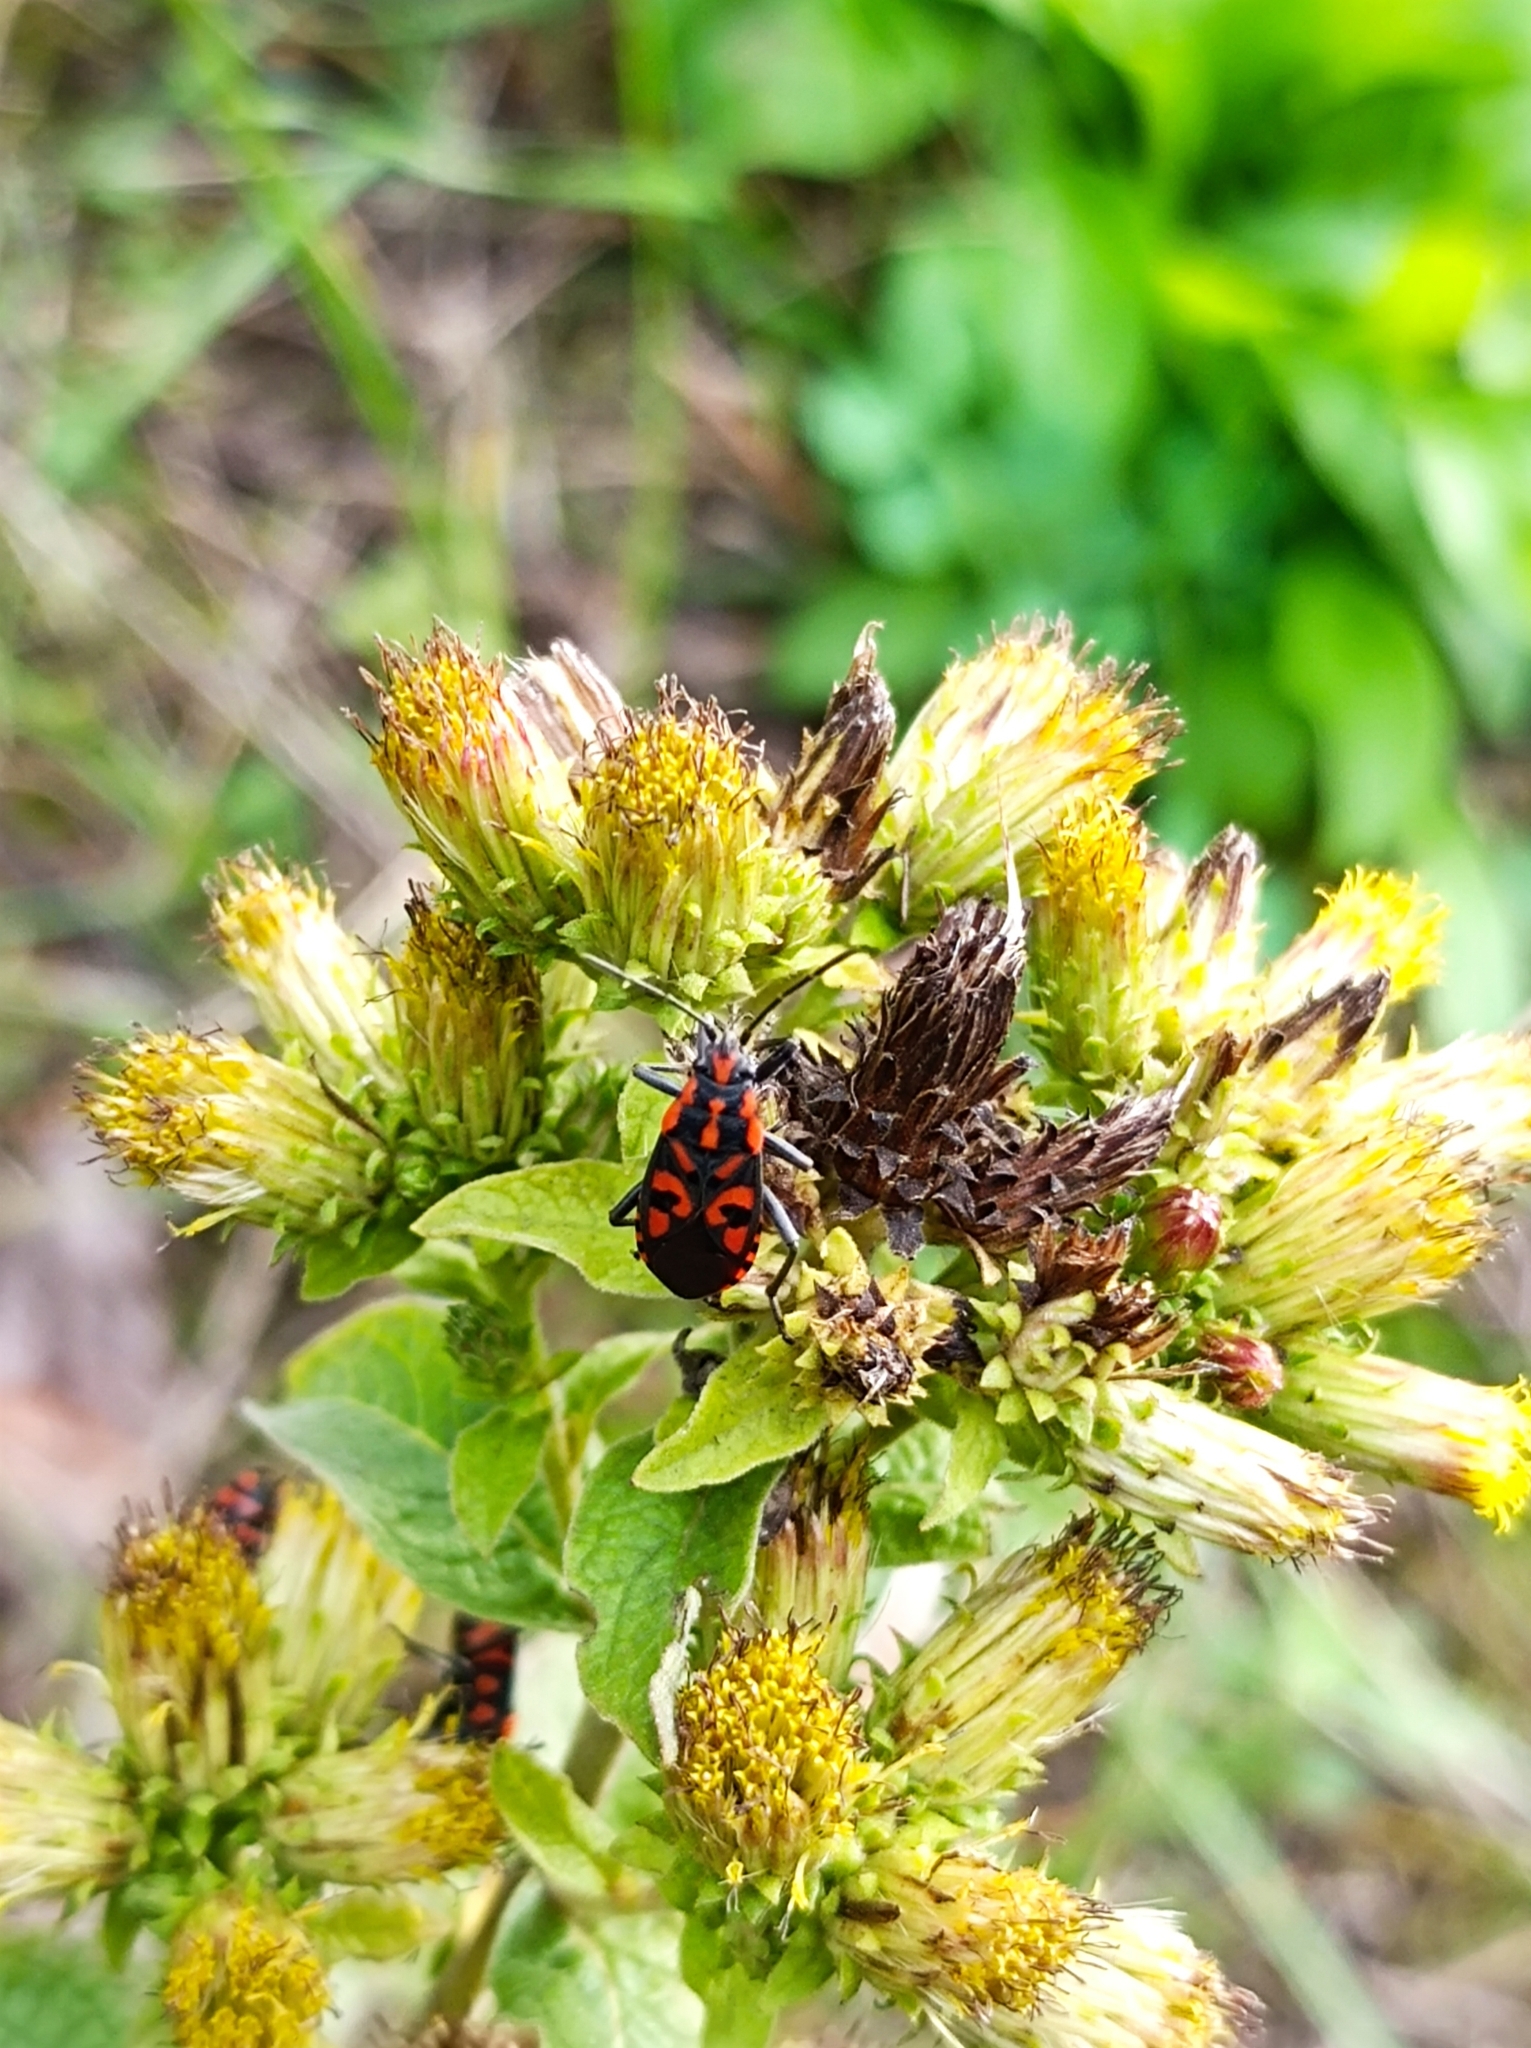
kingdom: Animalia
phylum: Arthropoda
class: Insecta
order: Hemiptera
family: Lygaeidae
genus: Spilostethus
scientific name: Spilostethus saxatilis
